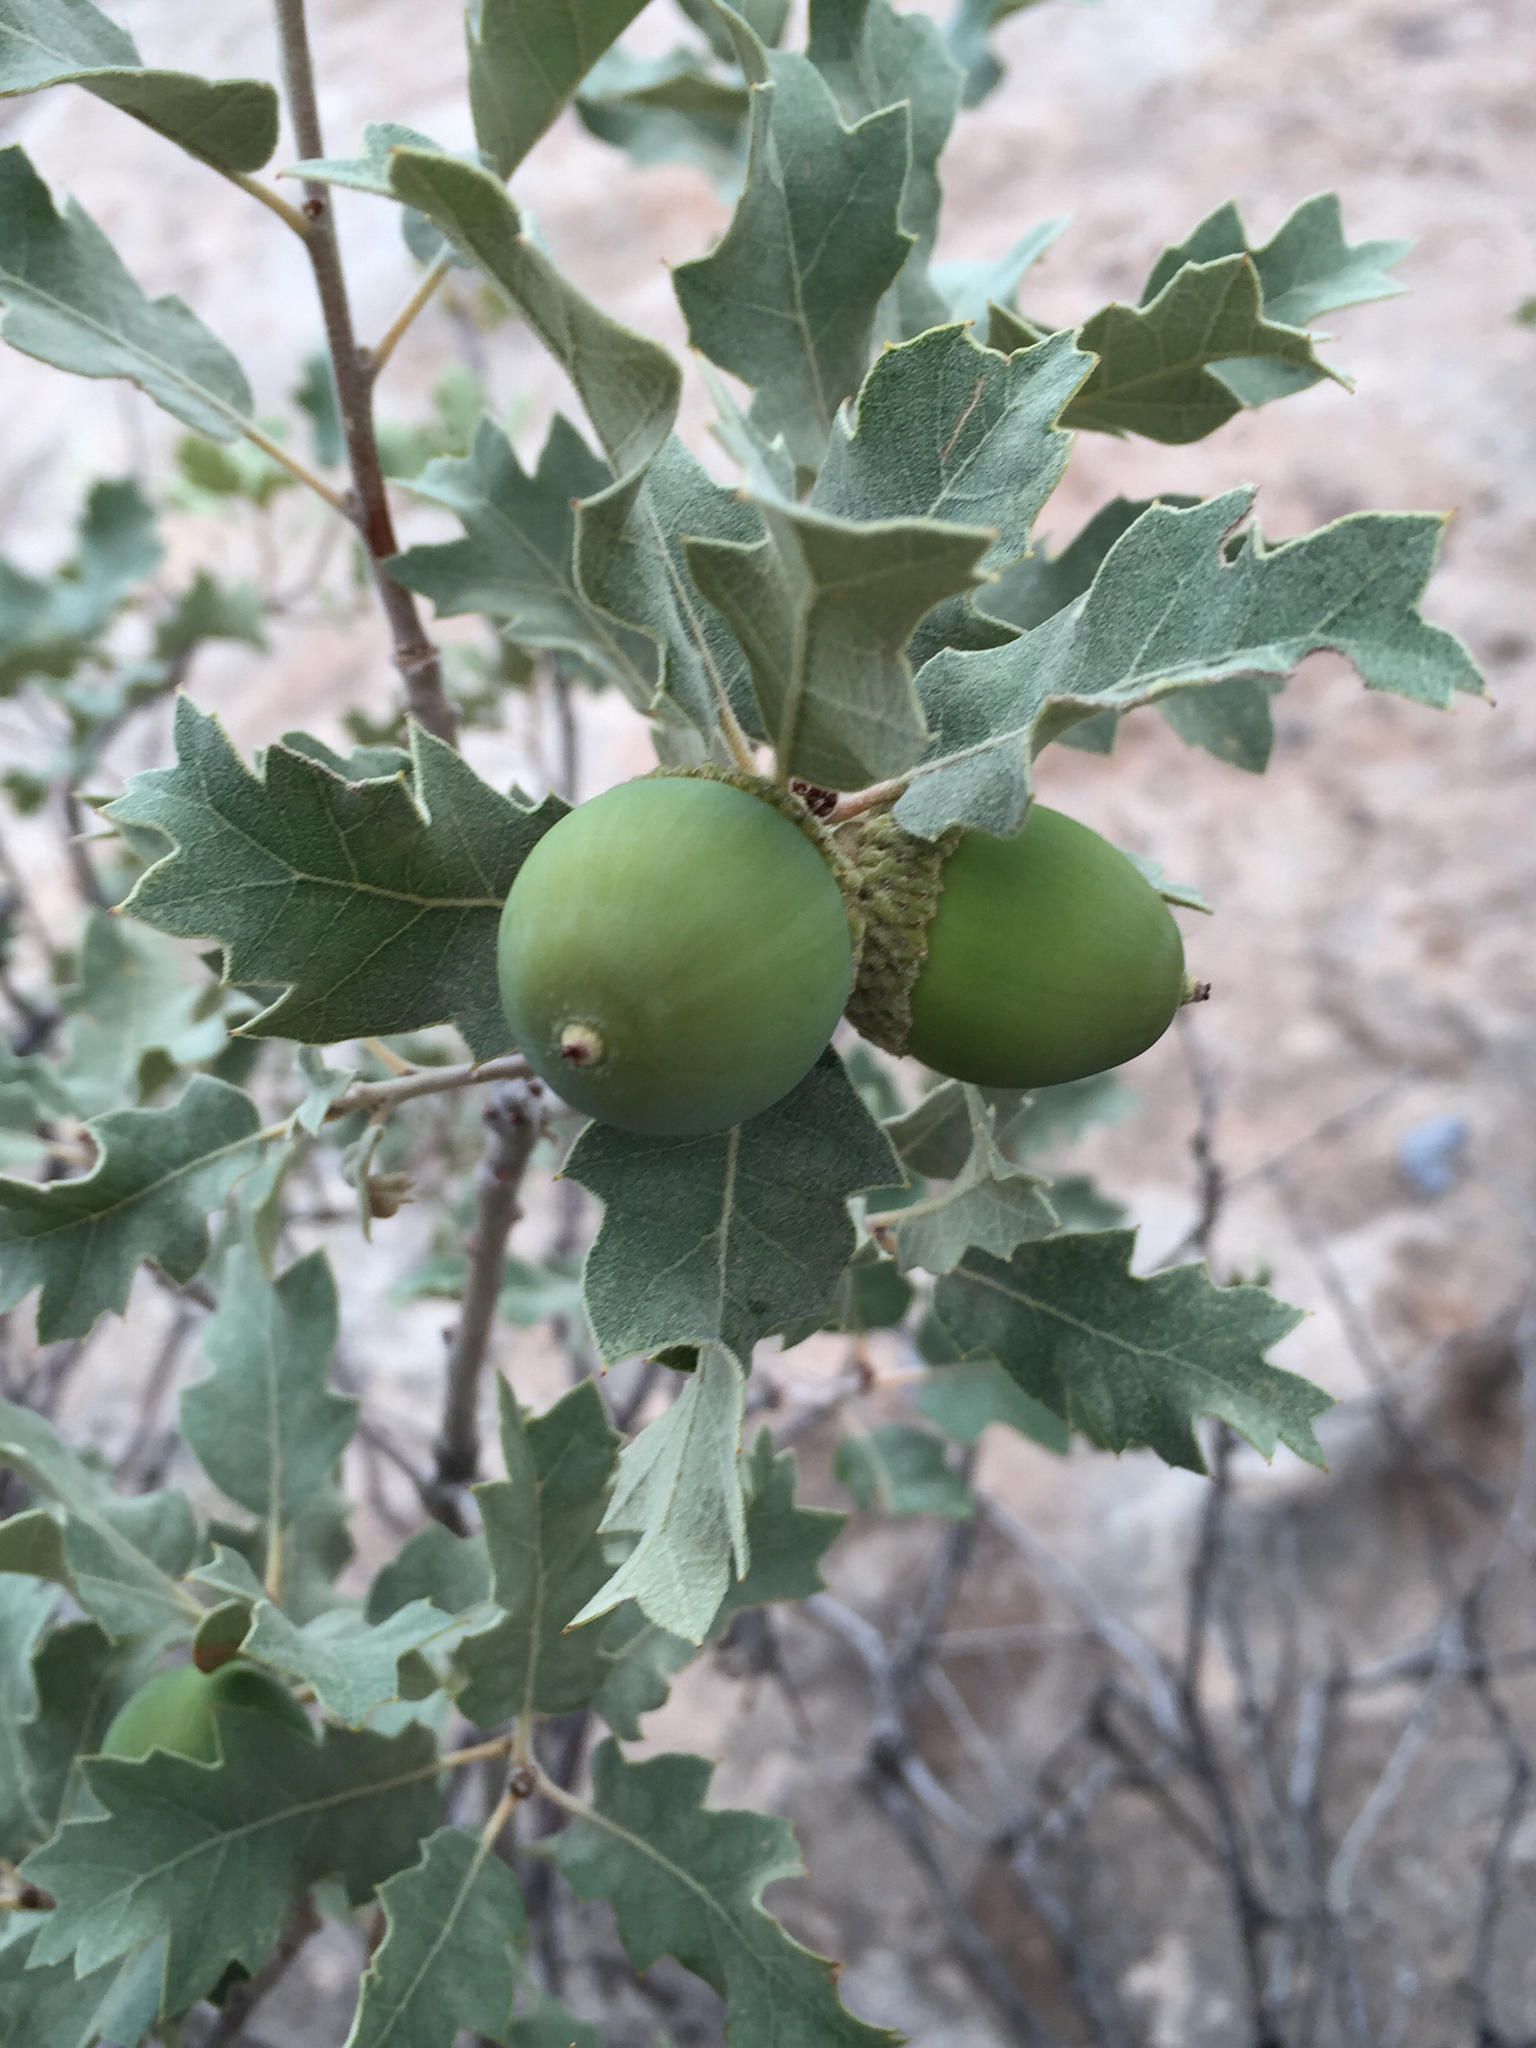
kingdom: Plantae
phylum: Tracheophyta
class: Magnoliopsida
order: Fagales
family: Fagaceae
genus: Quercus
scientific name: Quercus welshii
